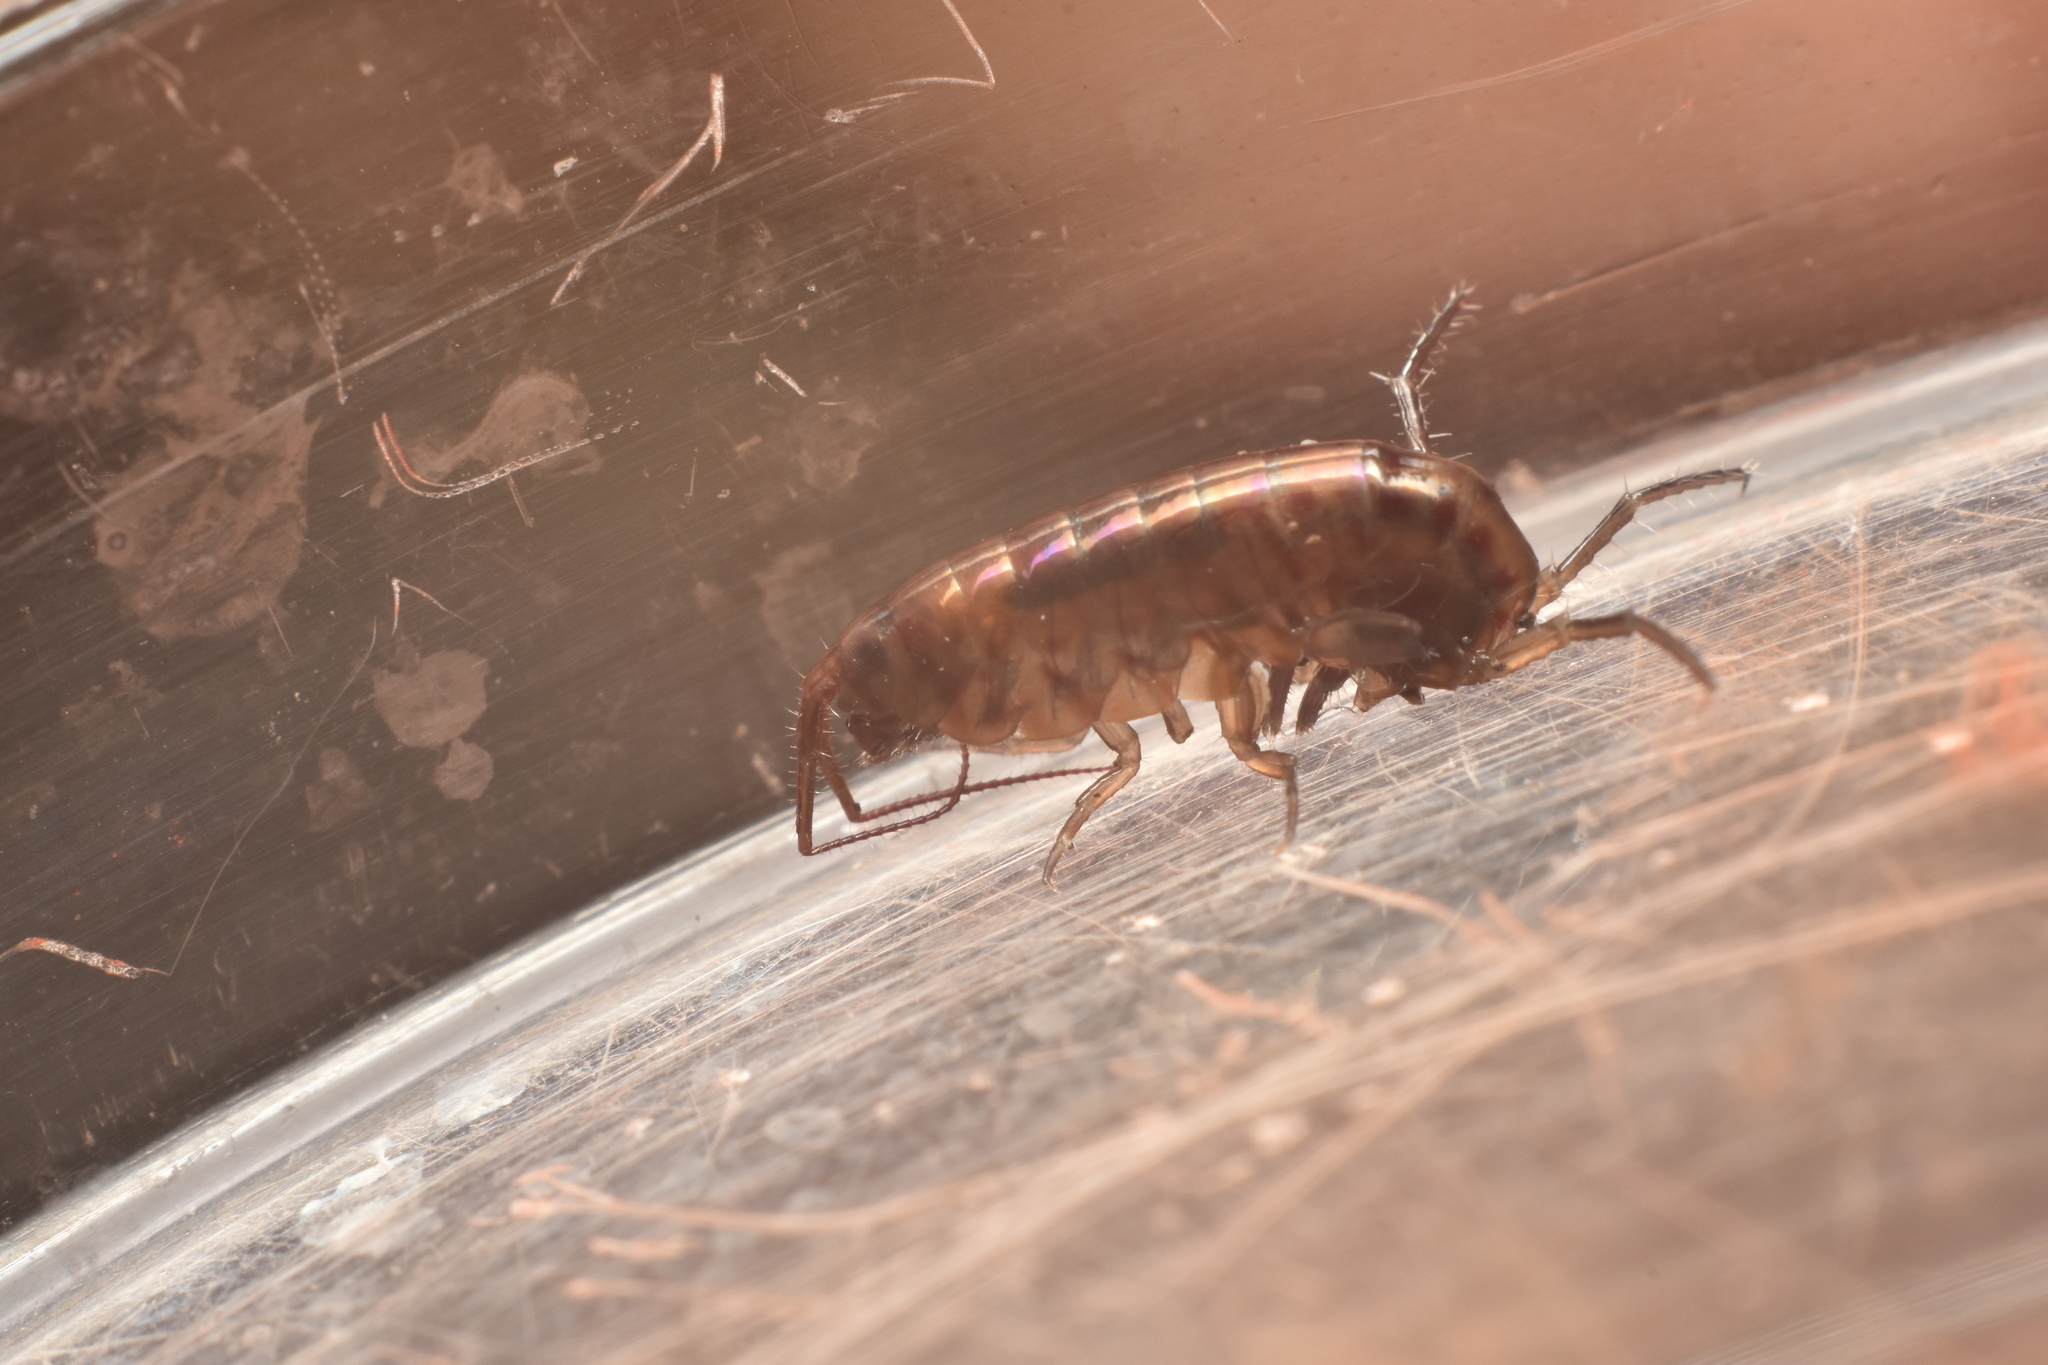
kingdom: Animalia
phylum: Arthropoda
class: Malacostraca
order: Amphipoda
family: Arcitalitridae
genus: Arcitalitrus
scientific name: Arcitalitrus sylvaticus
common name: Gammarid amphipod
